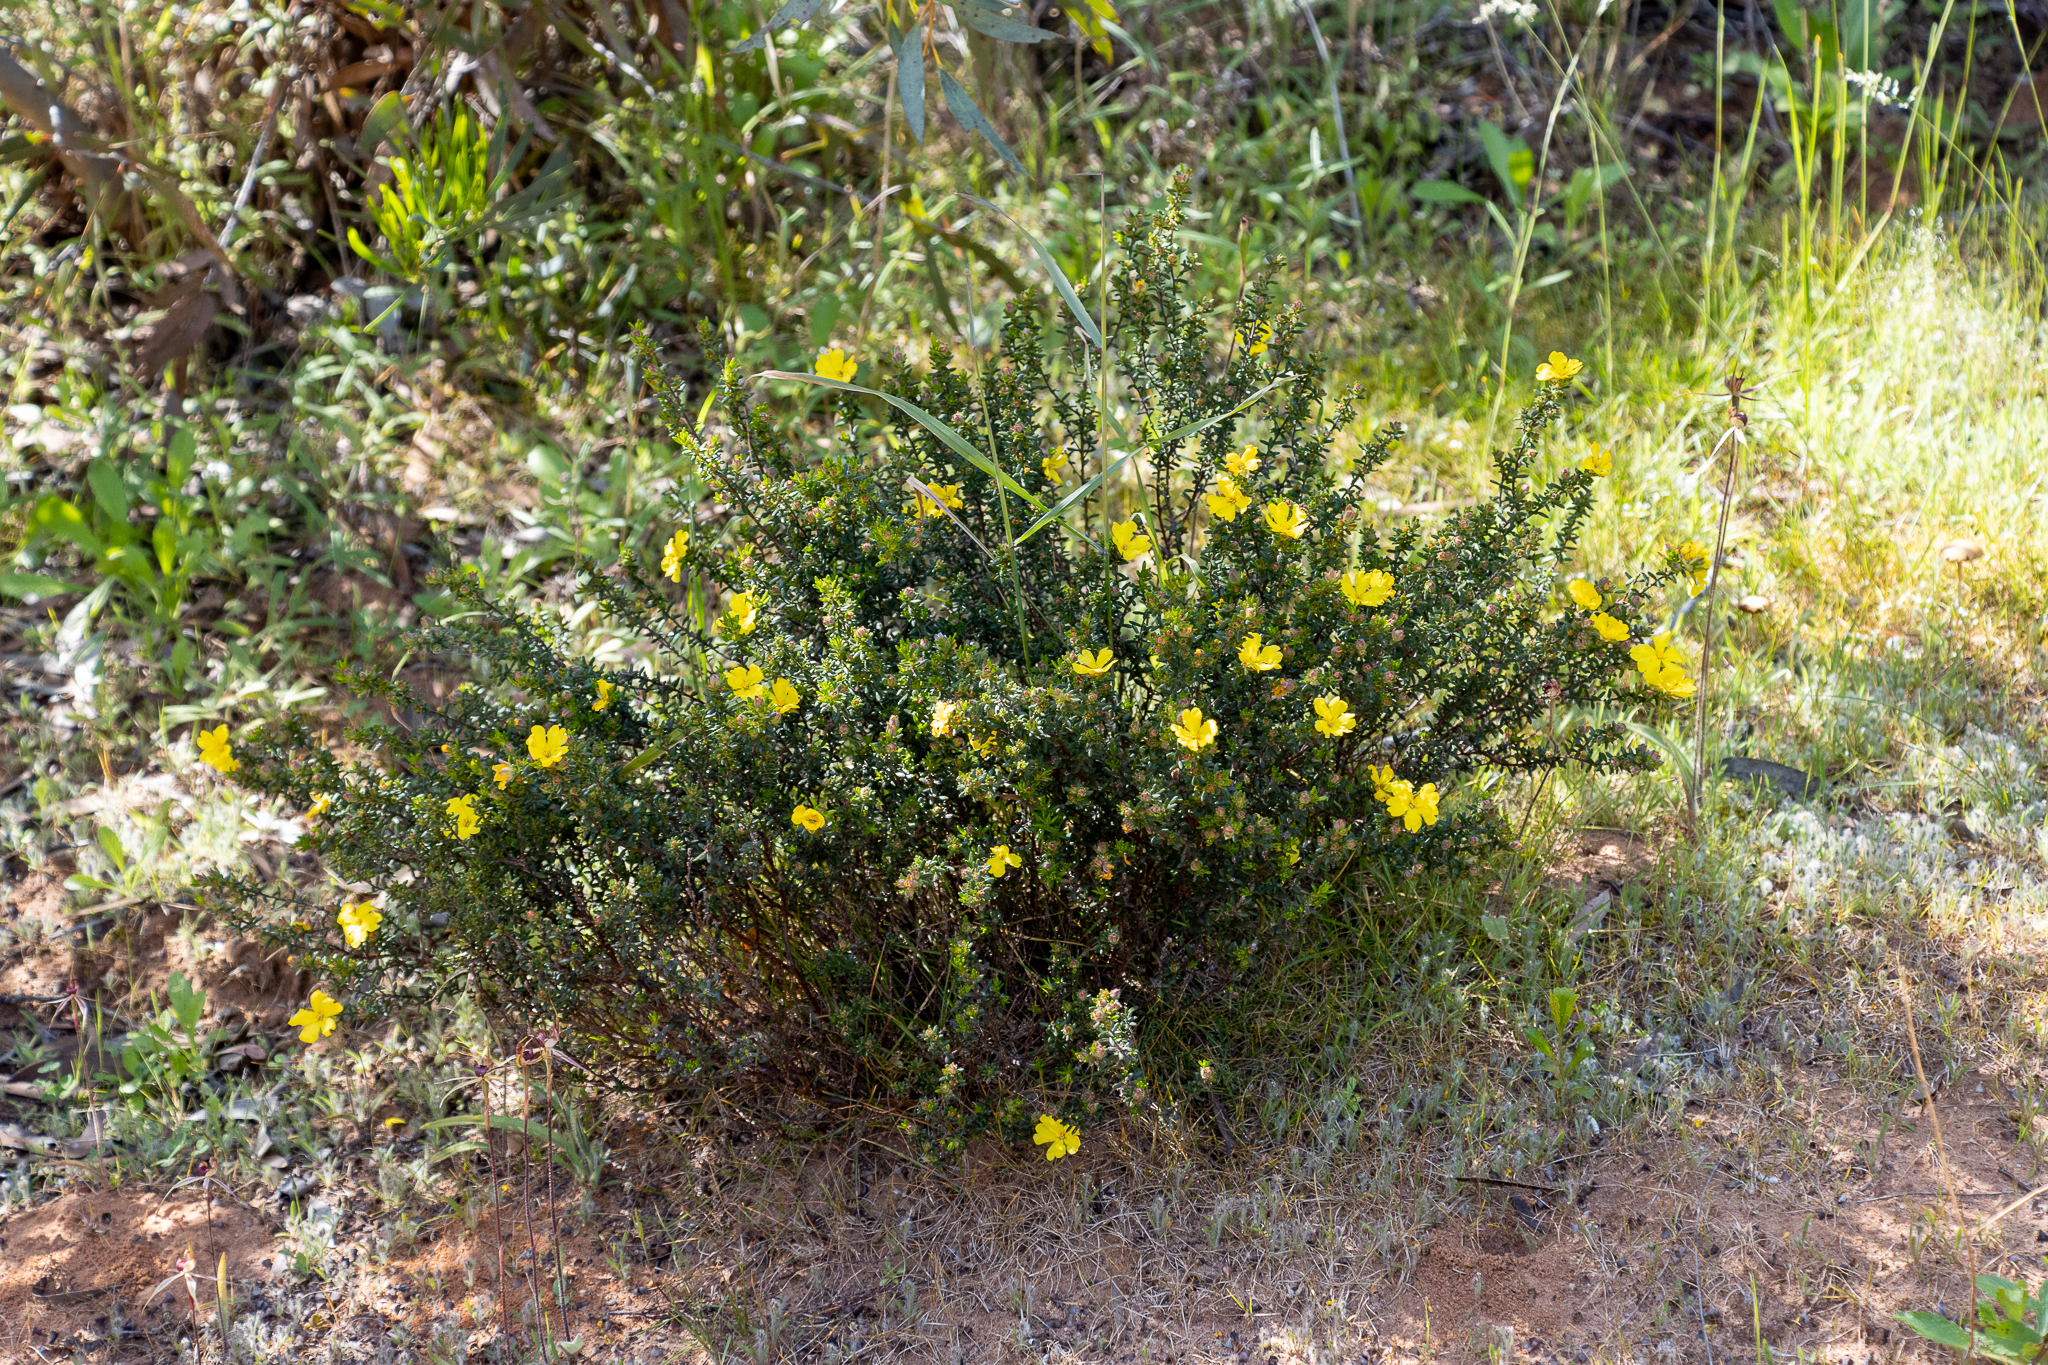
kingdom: Plantae
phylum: Tracheophyta
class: Magnoliopsida
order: Dilleniales
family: Dilleniaceae
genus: Hibbertia
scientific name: Hibbertia sericea
